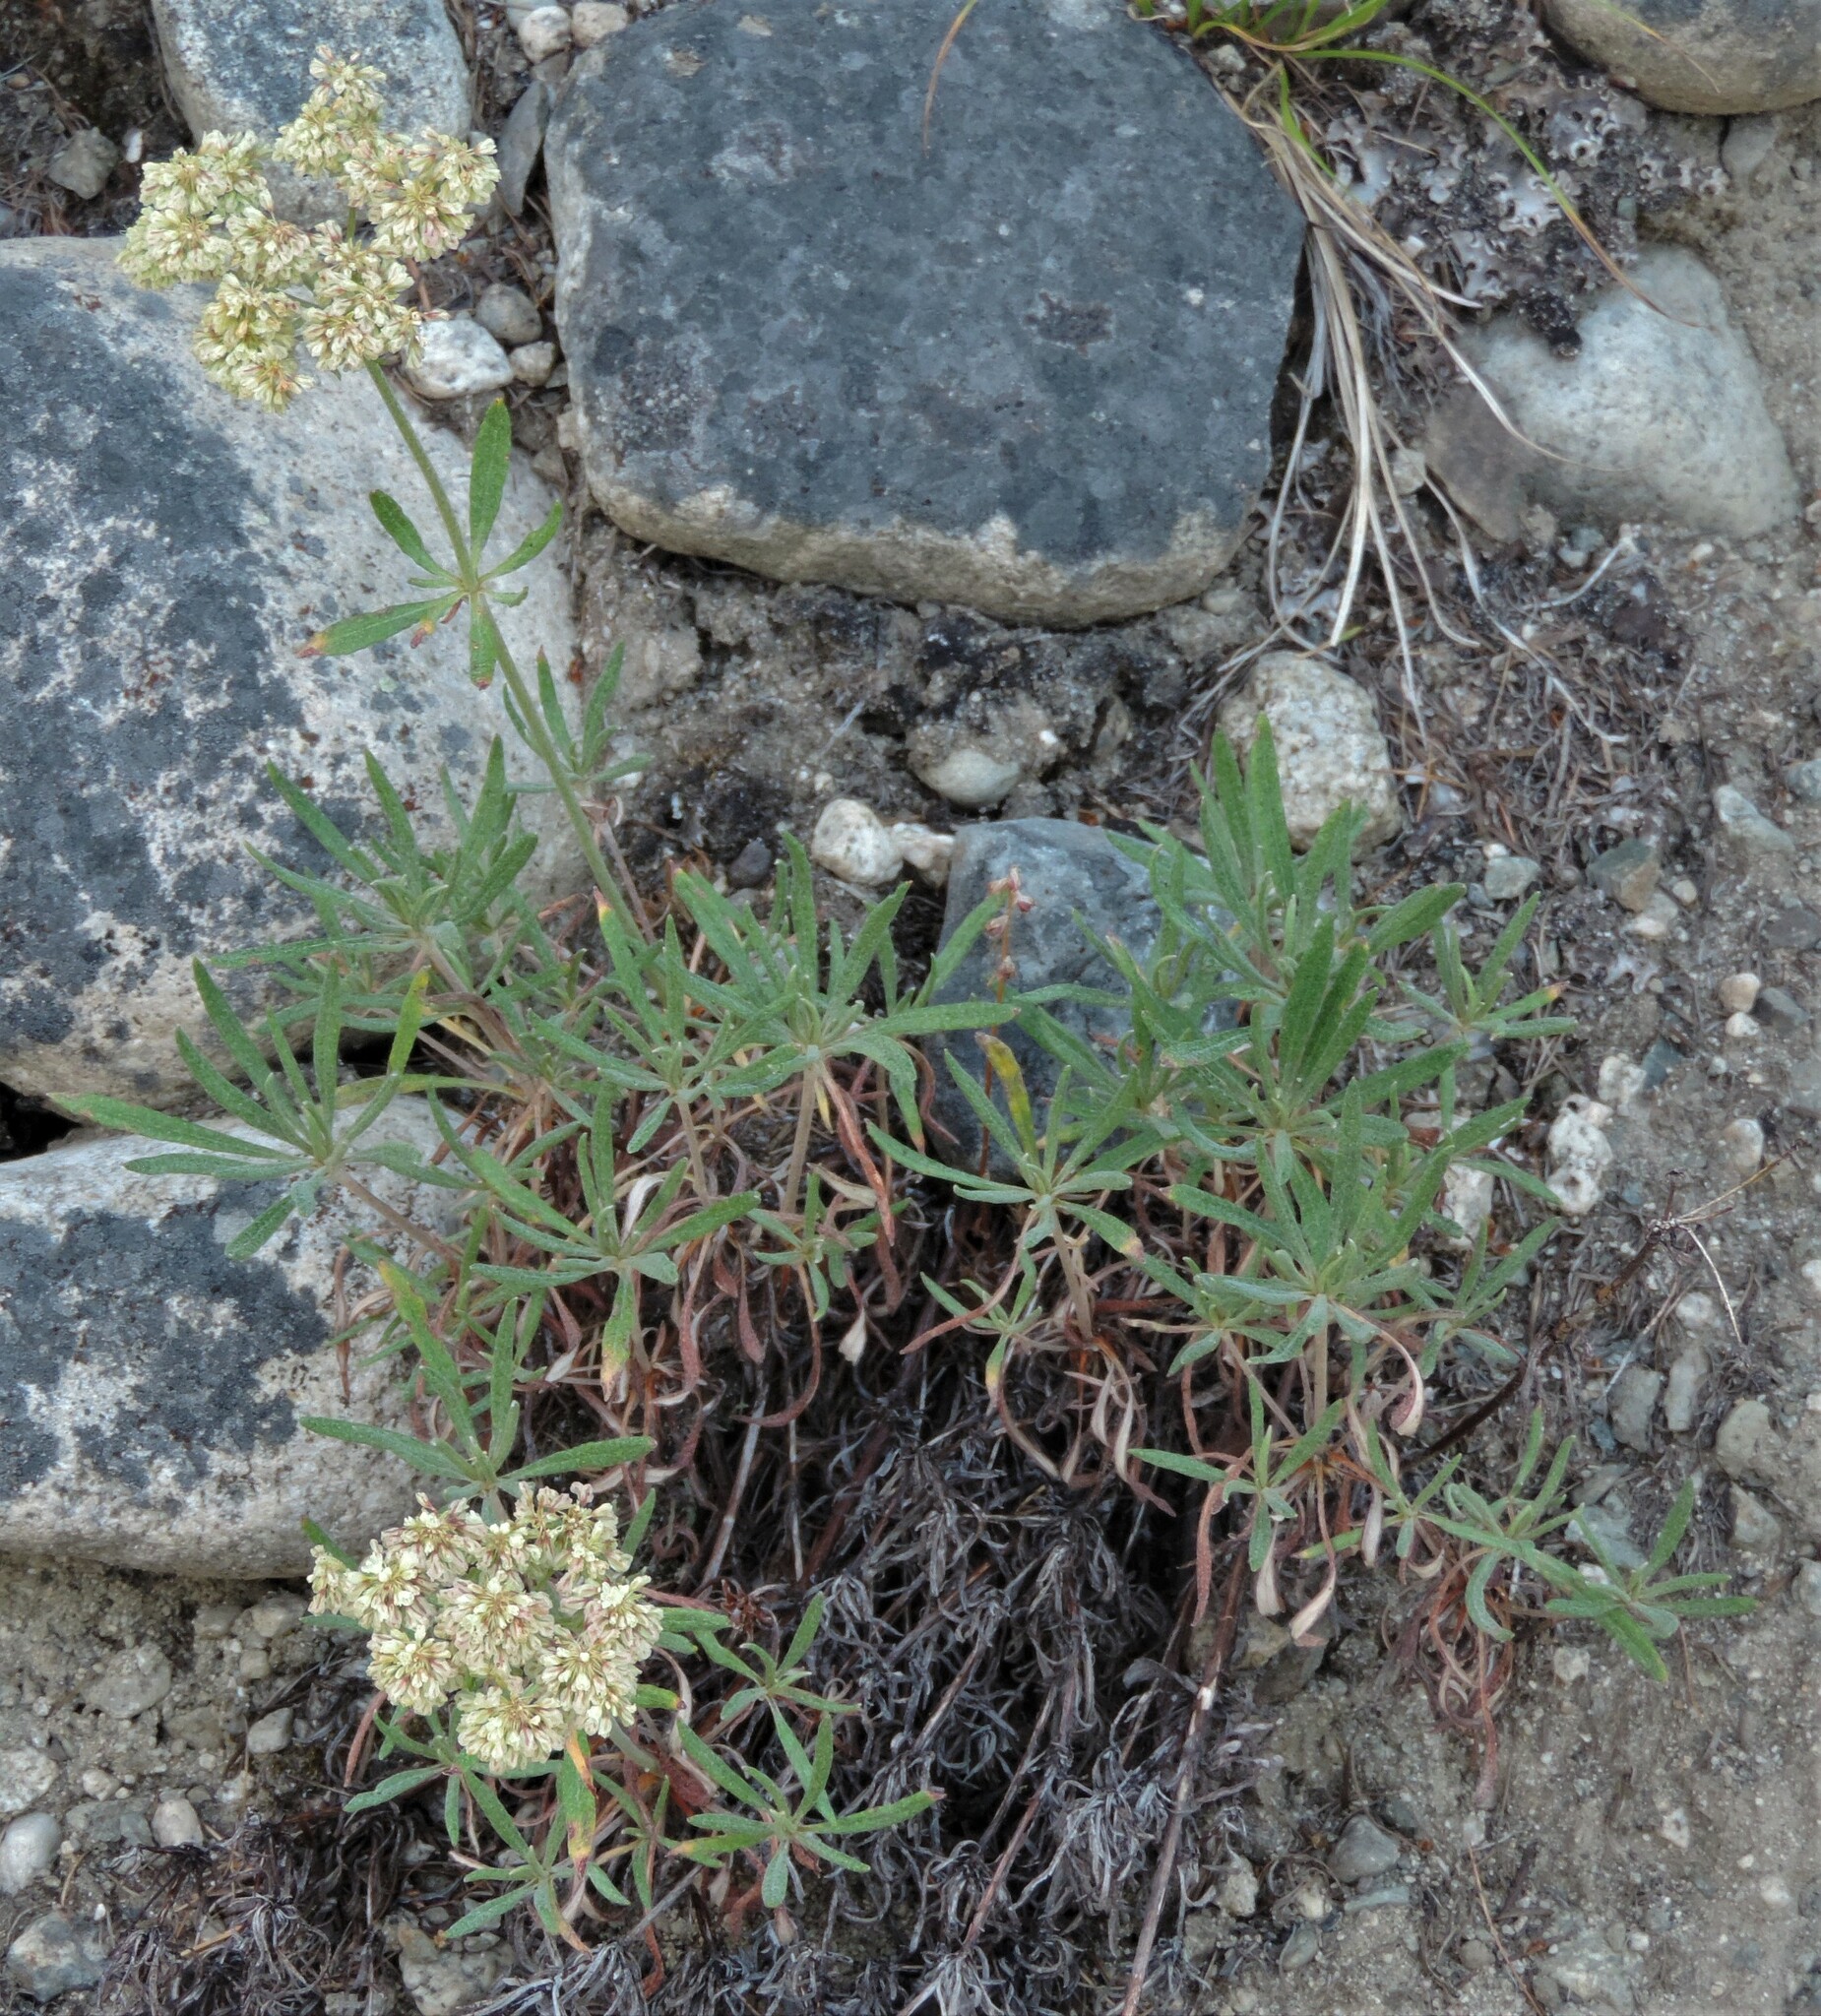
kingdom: Plantae
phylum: Tracheophyta
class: Magnoliopsida
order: Caryophyllales
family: Polygonaceae
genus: Eriogonum
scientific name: Eriogonum heracleoides
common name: Wyeth's buckwheat
